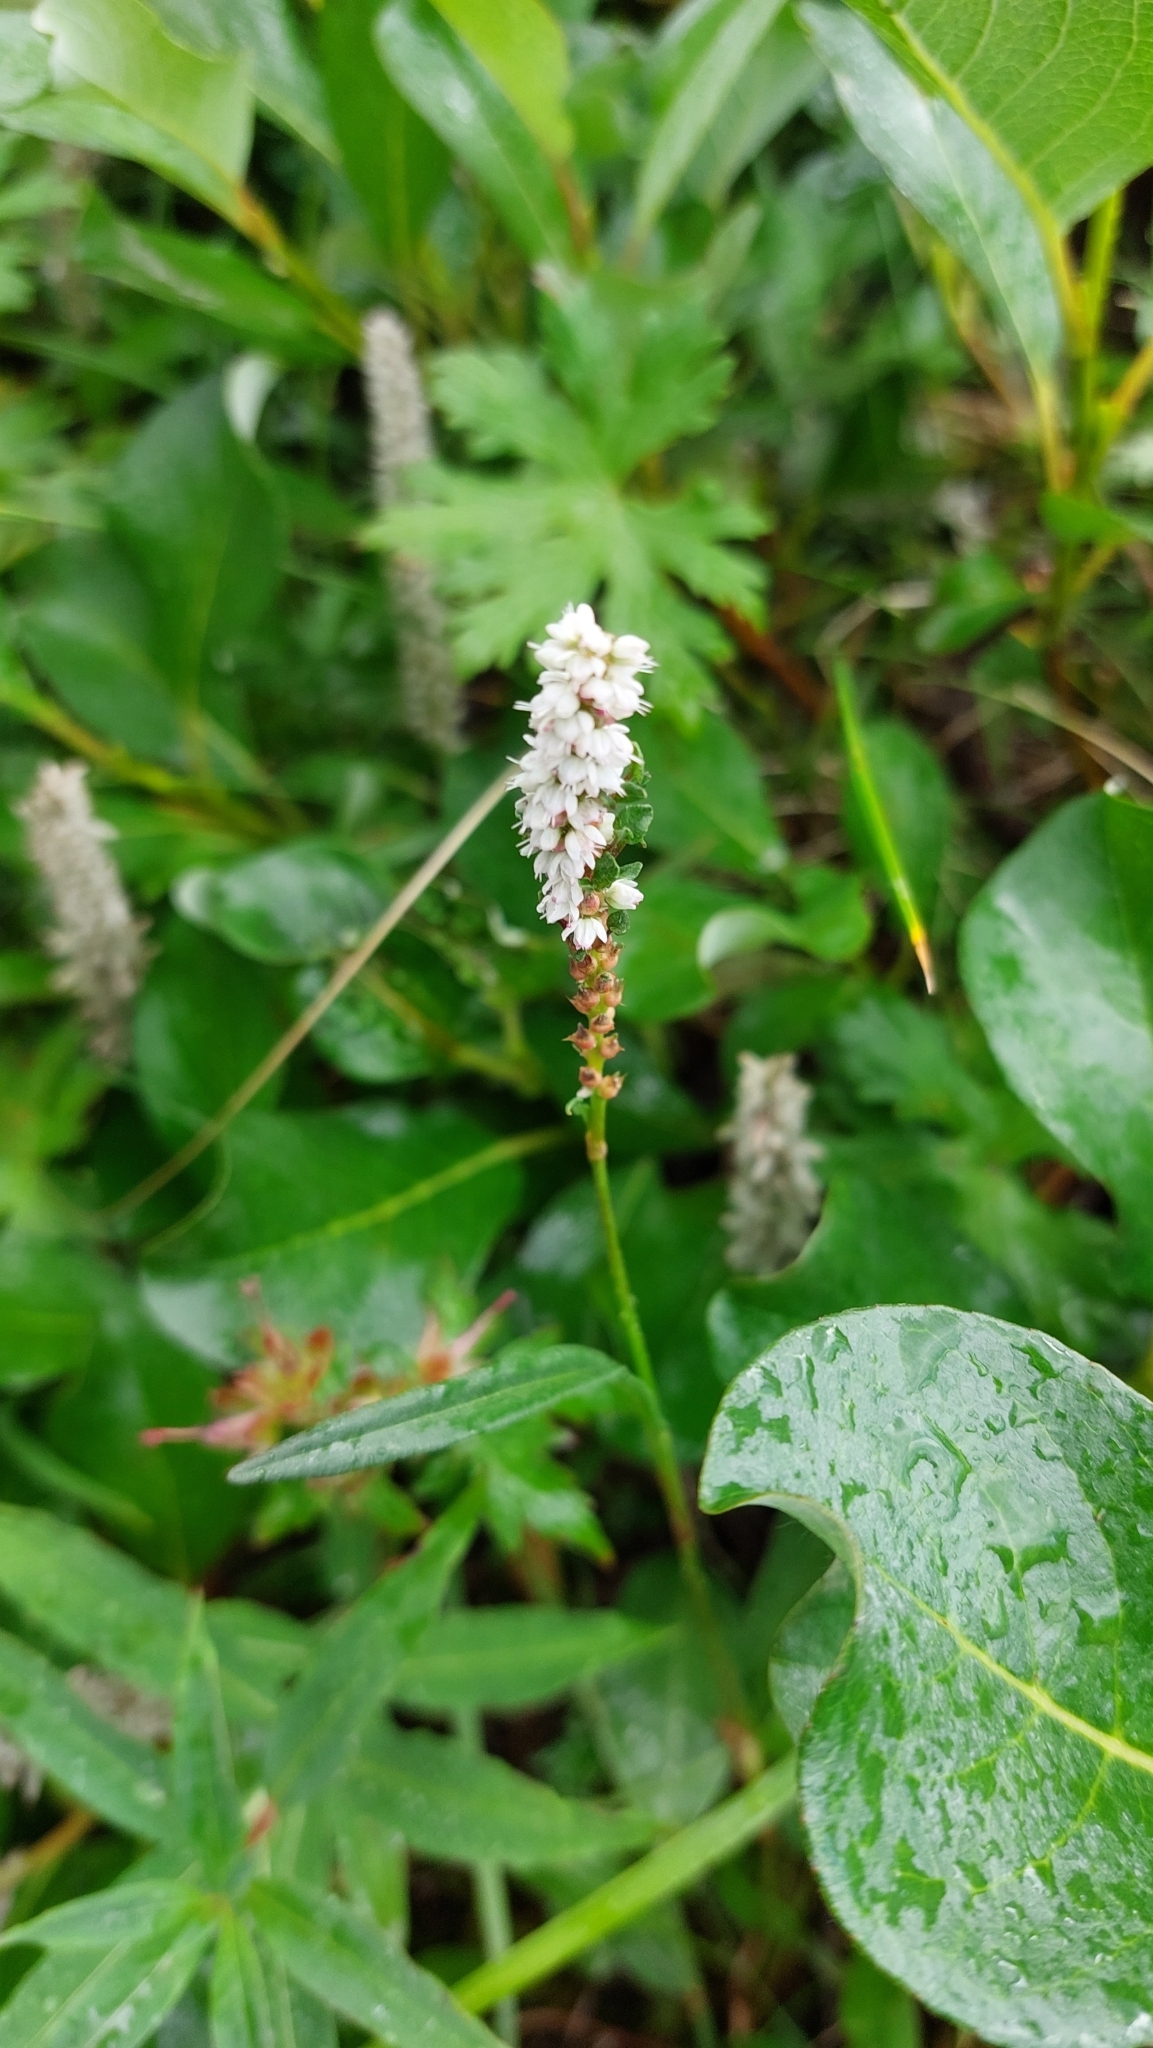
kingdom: Plantae
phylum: Tracheophyta
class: Magnoliopsida
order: Caryophyllales
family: Polygonaceae
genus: Bistorta
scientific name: Bistorta vivipara
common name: Alpine bistort
